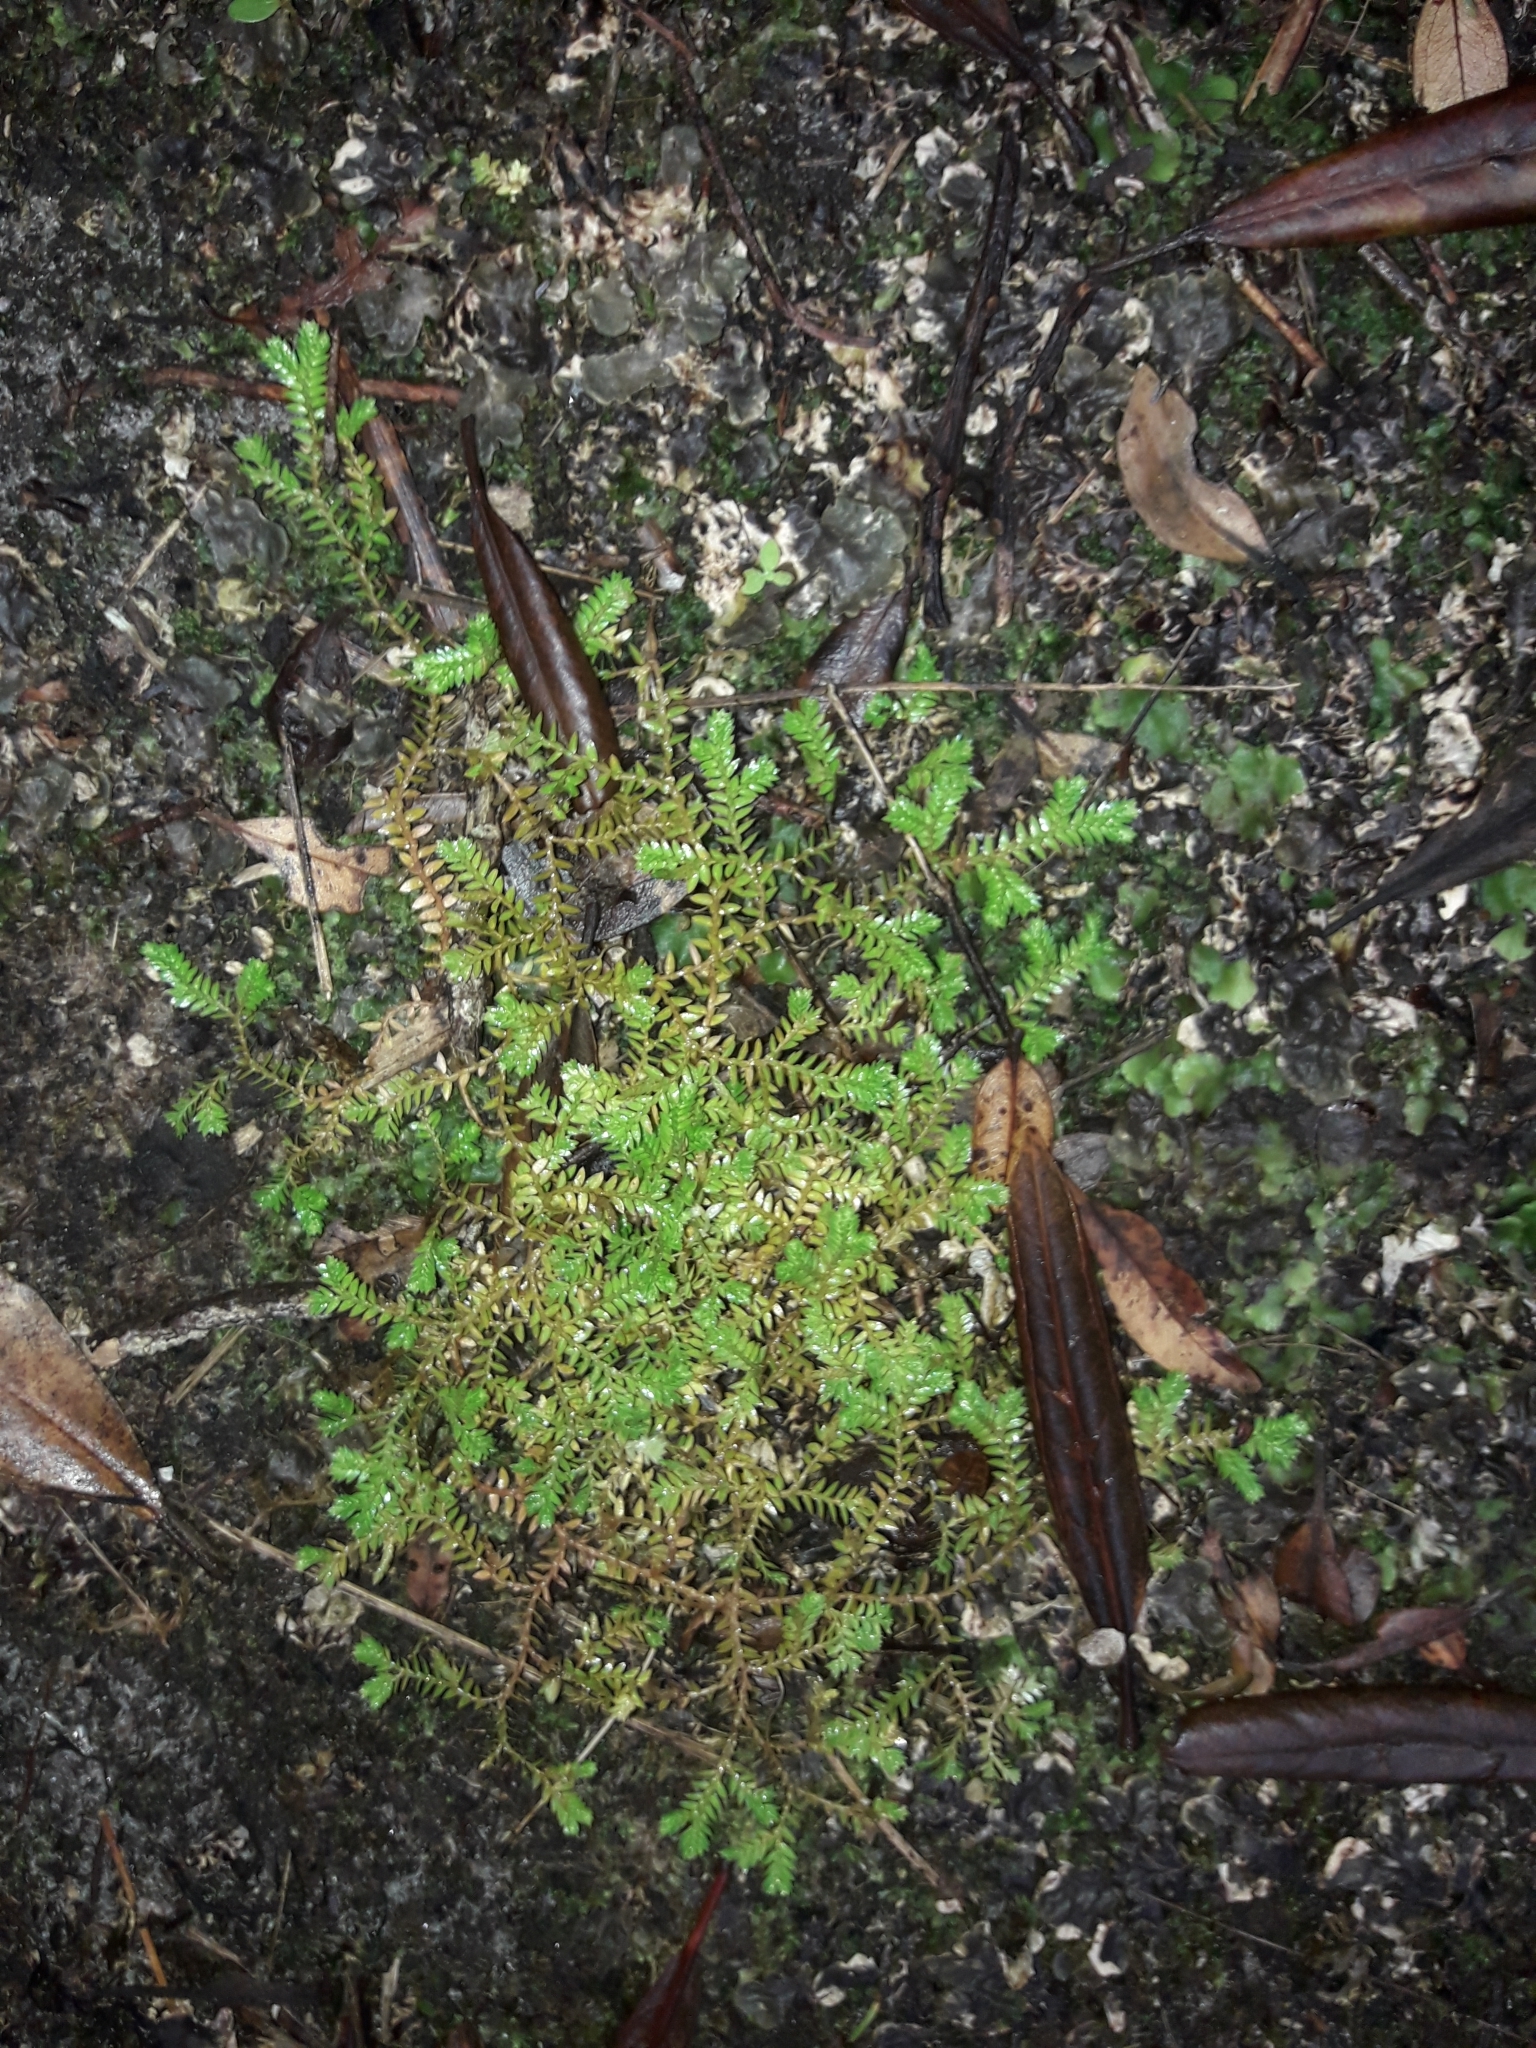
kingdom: Plantae
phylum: Tracheophyta
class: Lycopodiopsida
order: Selaginellales
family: Selaginellaceae
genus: Selaginella
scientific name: Selaginella kraussiana
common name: Krauss' spikemoss
